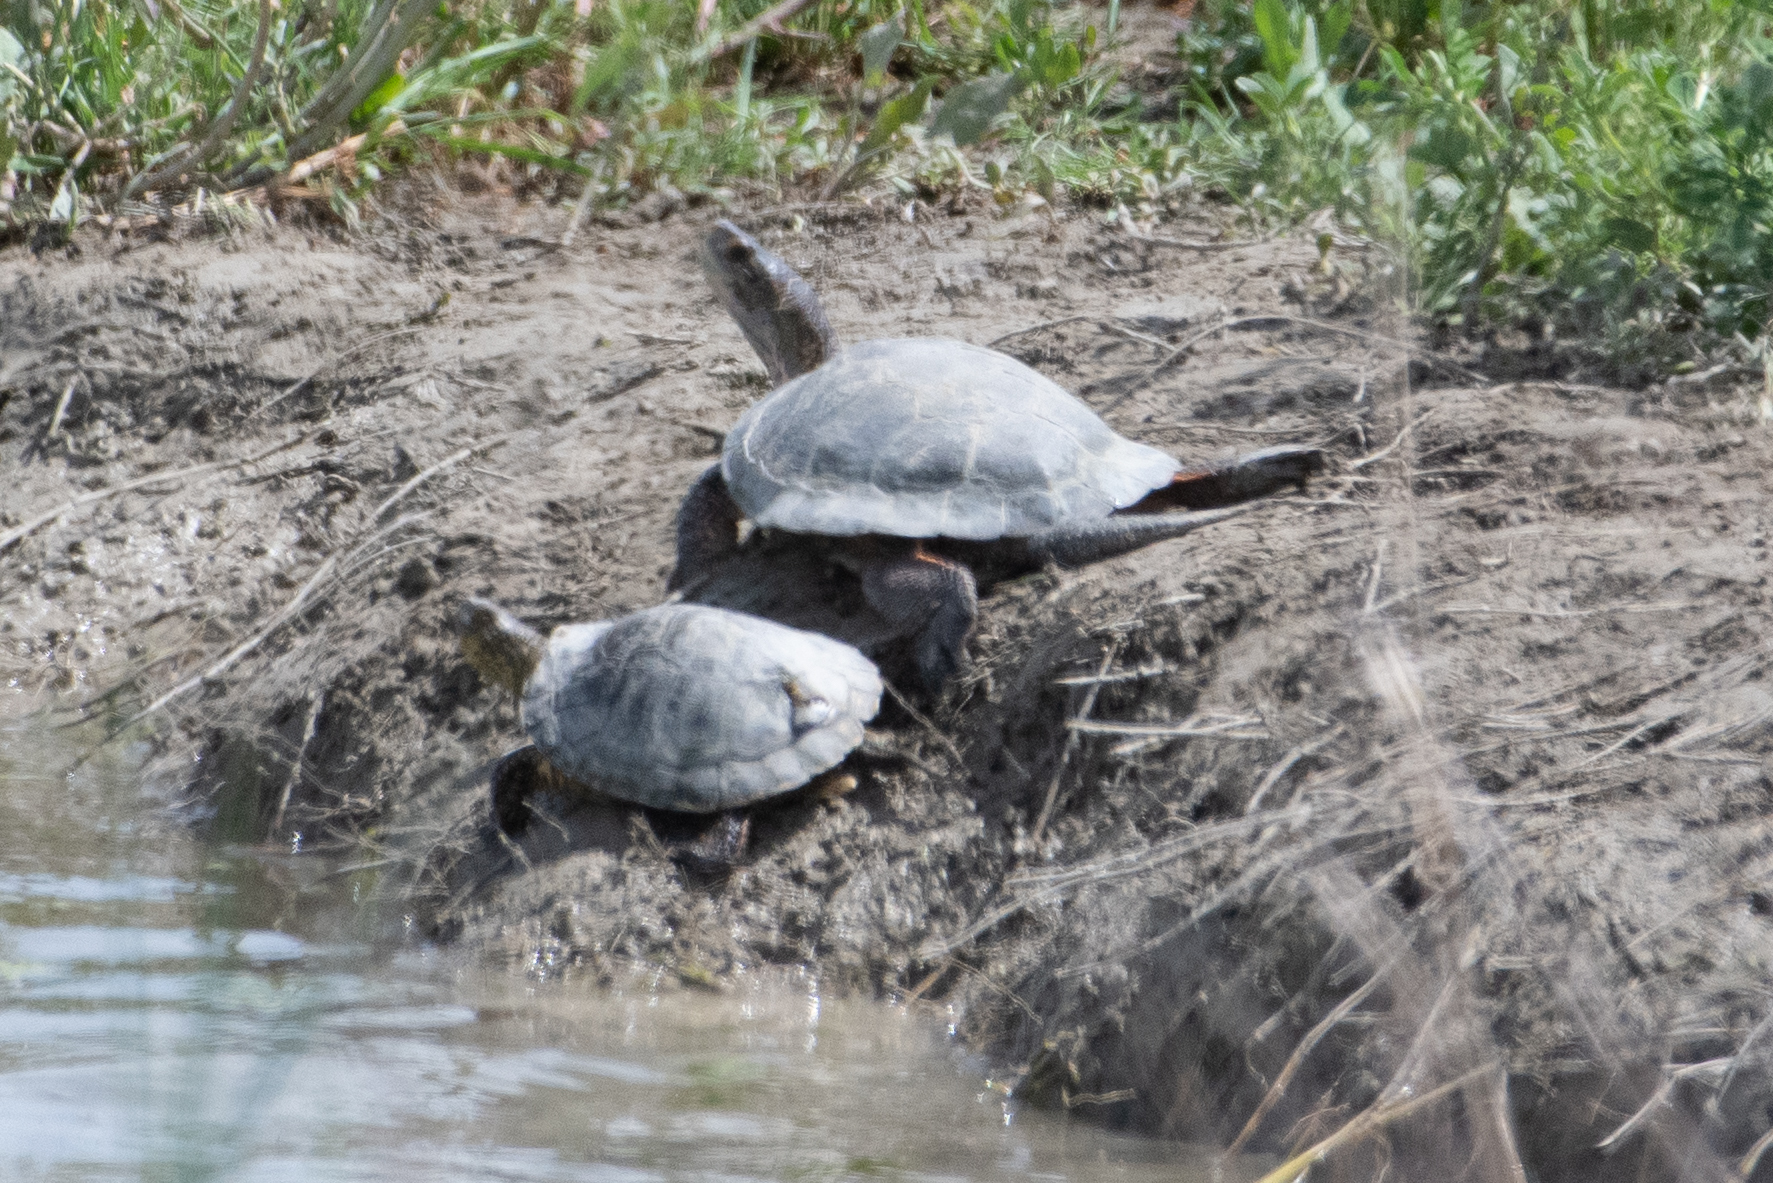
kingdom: Animalia
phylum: Chordata
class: Testudines
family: Emydidae
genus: Actinemys
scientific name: Actinemys marmorata
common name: Western pond turtle
